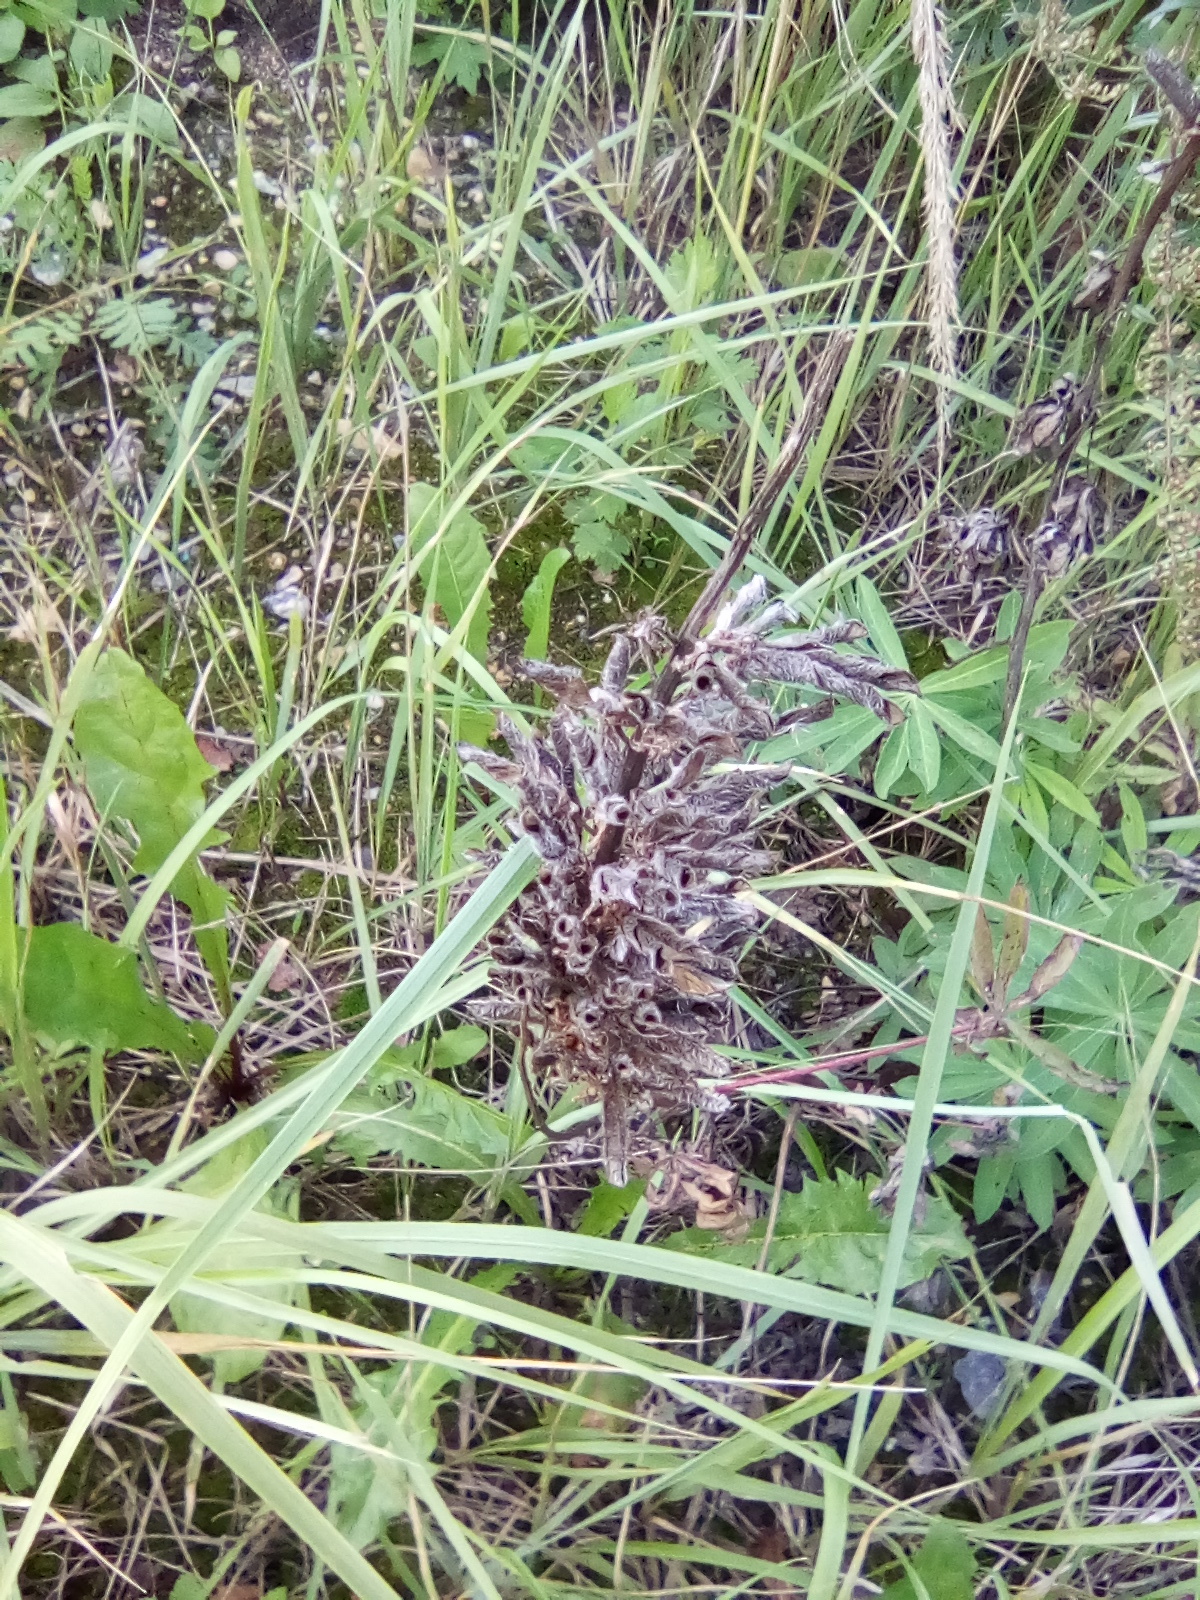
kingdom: Plantae
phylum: Tracheophyta
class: Magnoliopsida
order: Fabales
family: Fabaceae
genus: Lupinus
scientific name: Lupinus polyphyllus
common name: Garden lupin
